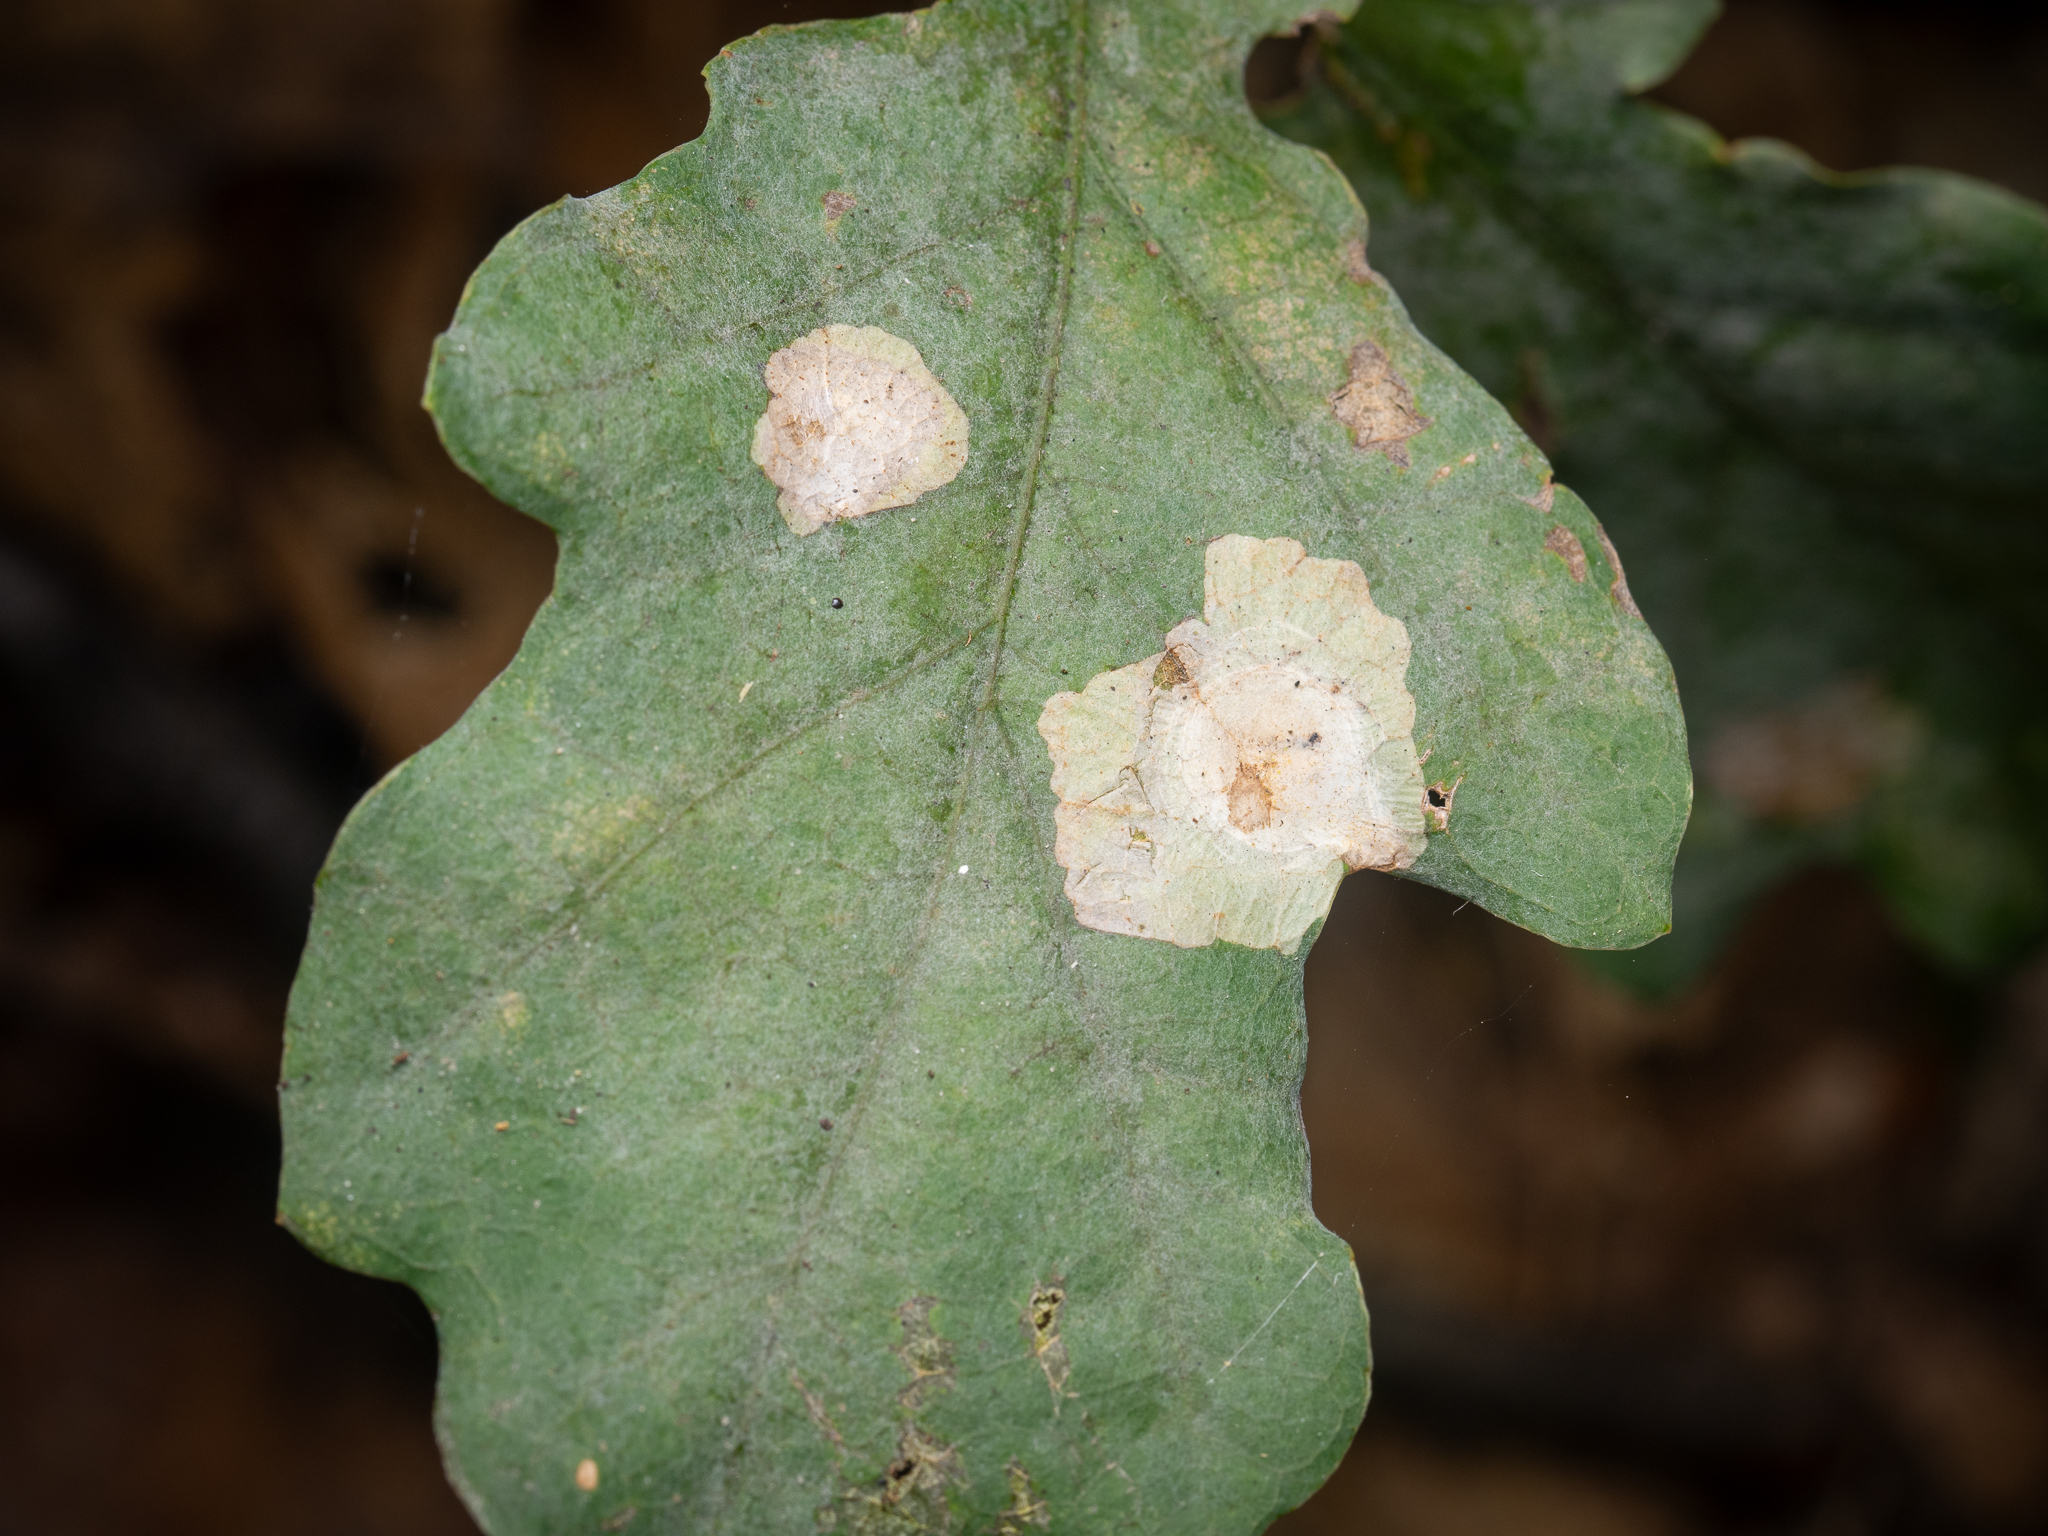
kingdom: Animalia
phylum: Arthropoda
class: Insecta
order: Lepidoptera
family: Tischeriidae
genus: Tischeria
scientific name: Tischeria ekebladella
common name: Oak carl
